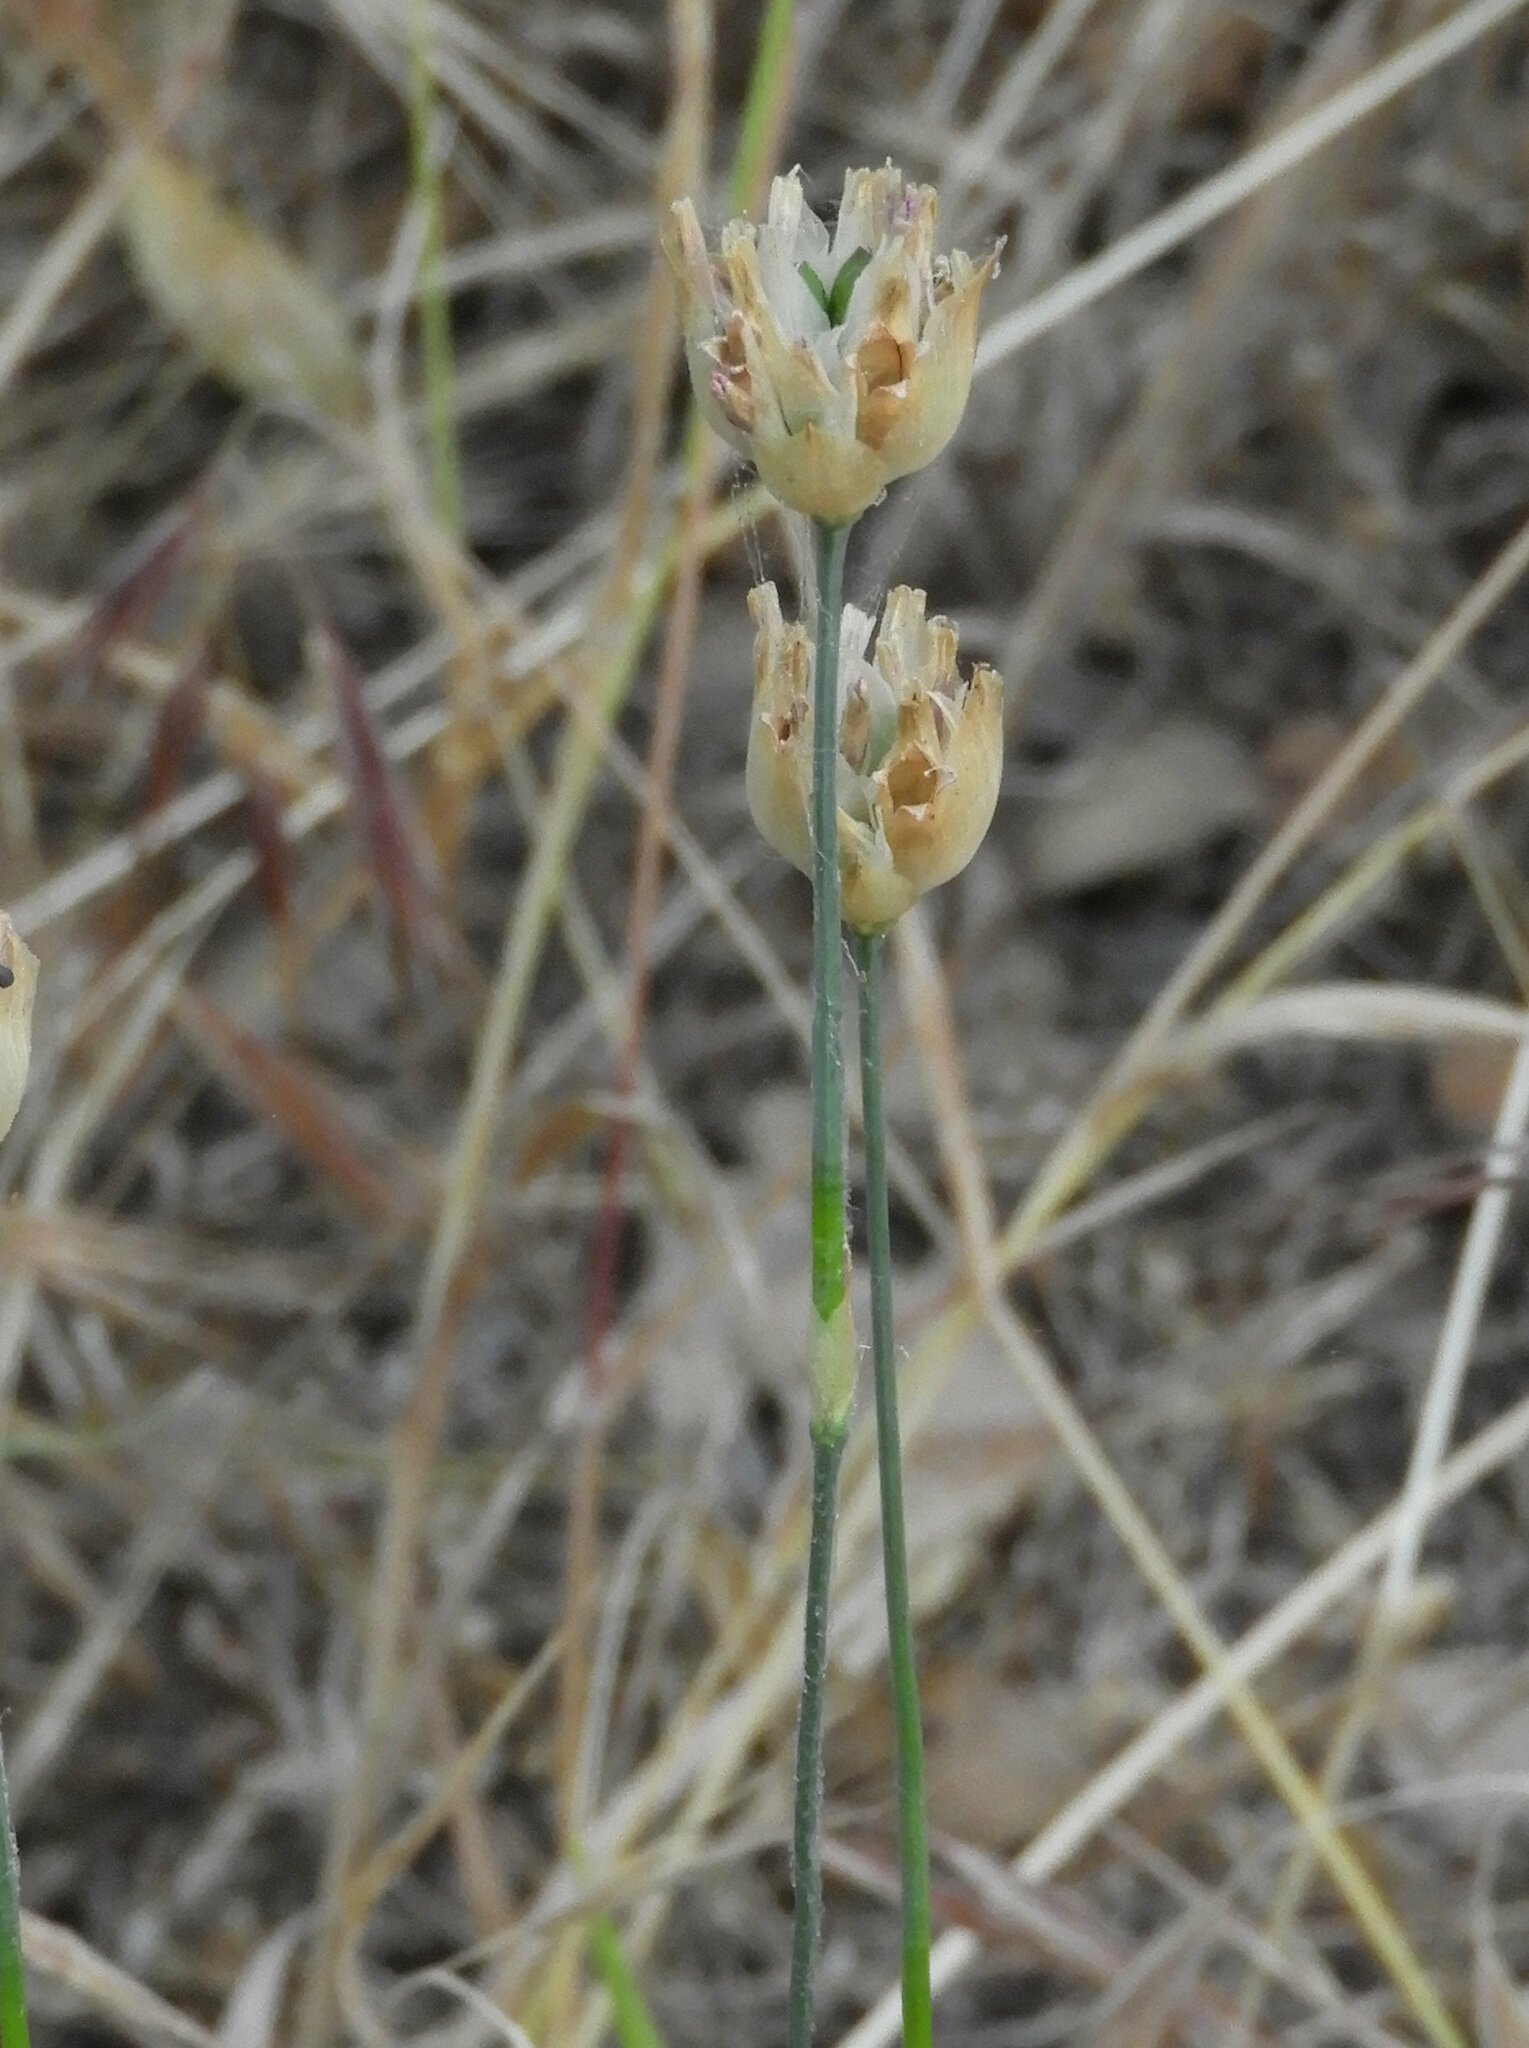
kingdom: Plantae
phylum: Tracheophyta
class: Magnoliopsida
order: Caryophyllales
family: Caryophyllaceae
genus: Petrorhagia
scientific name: Petrorhagia dubia
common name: Hairypink
